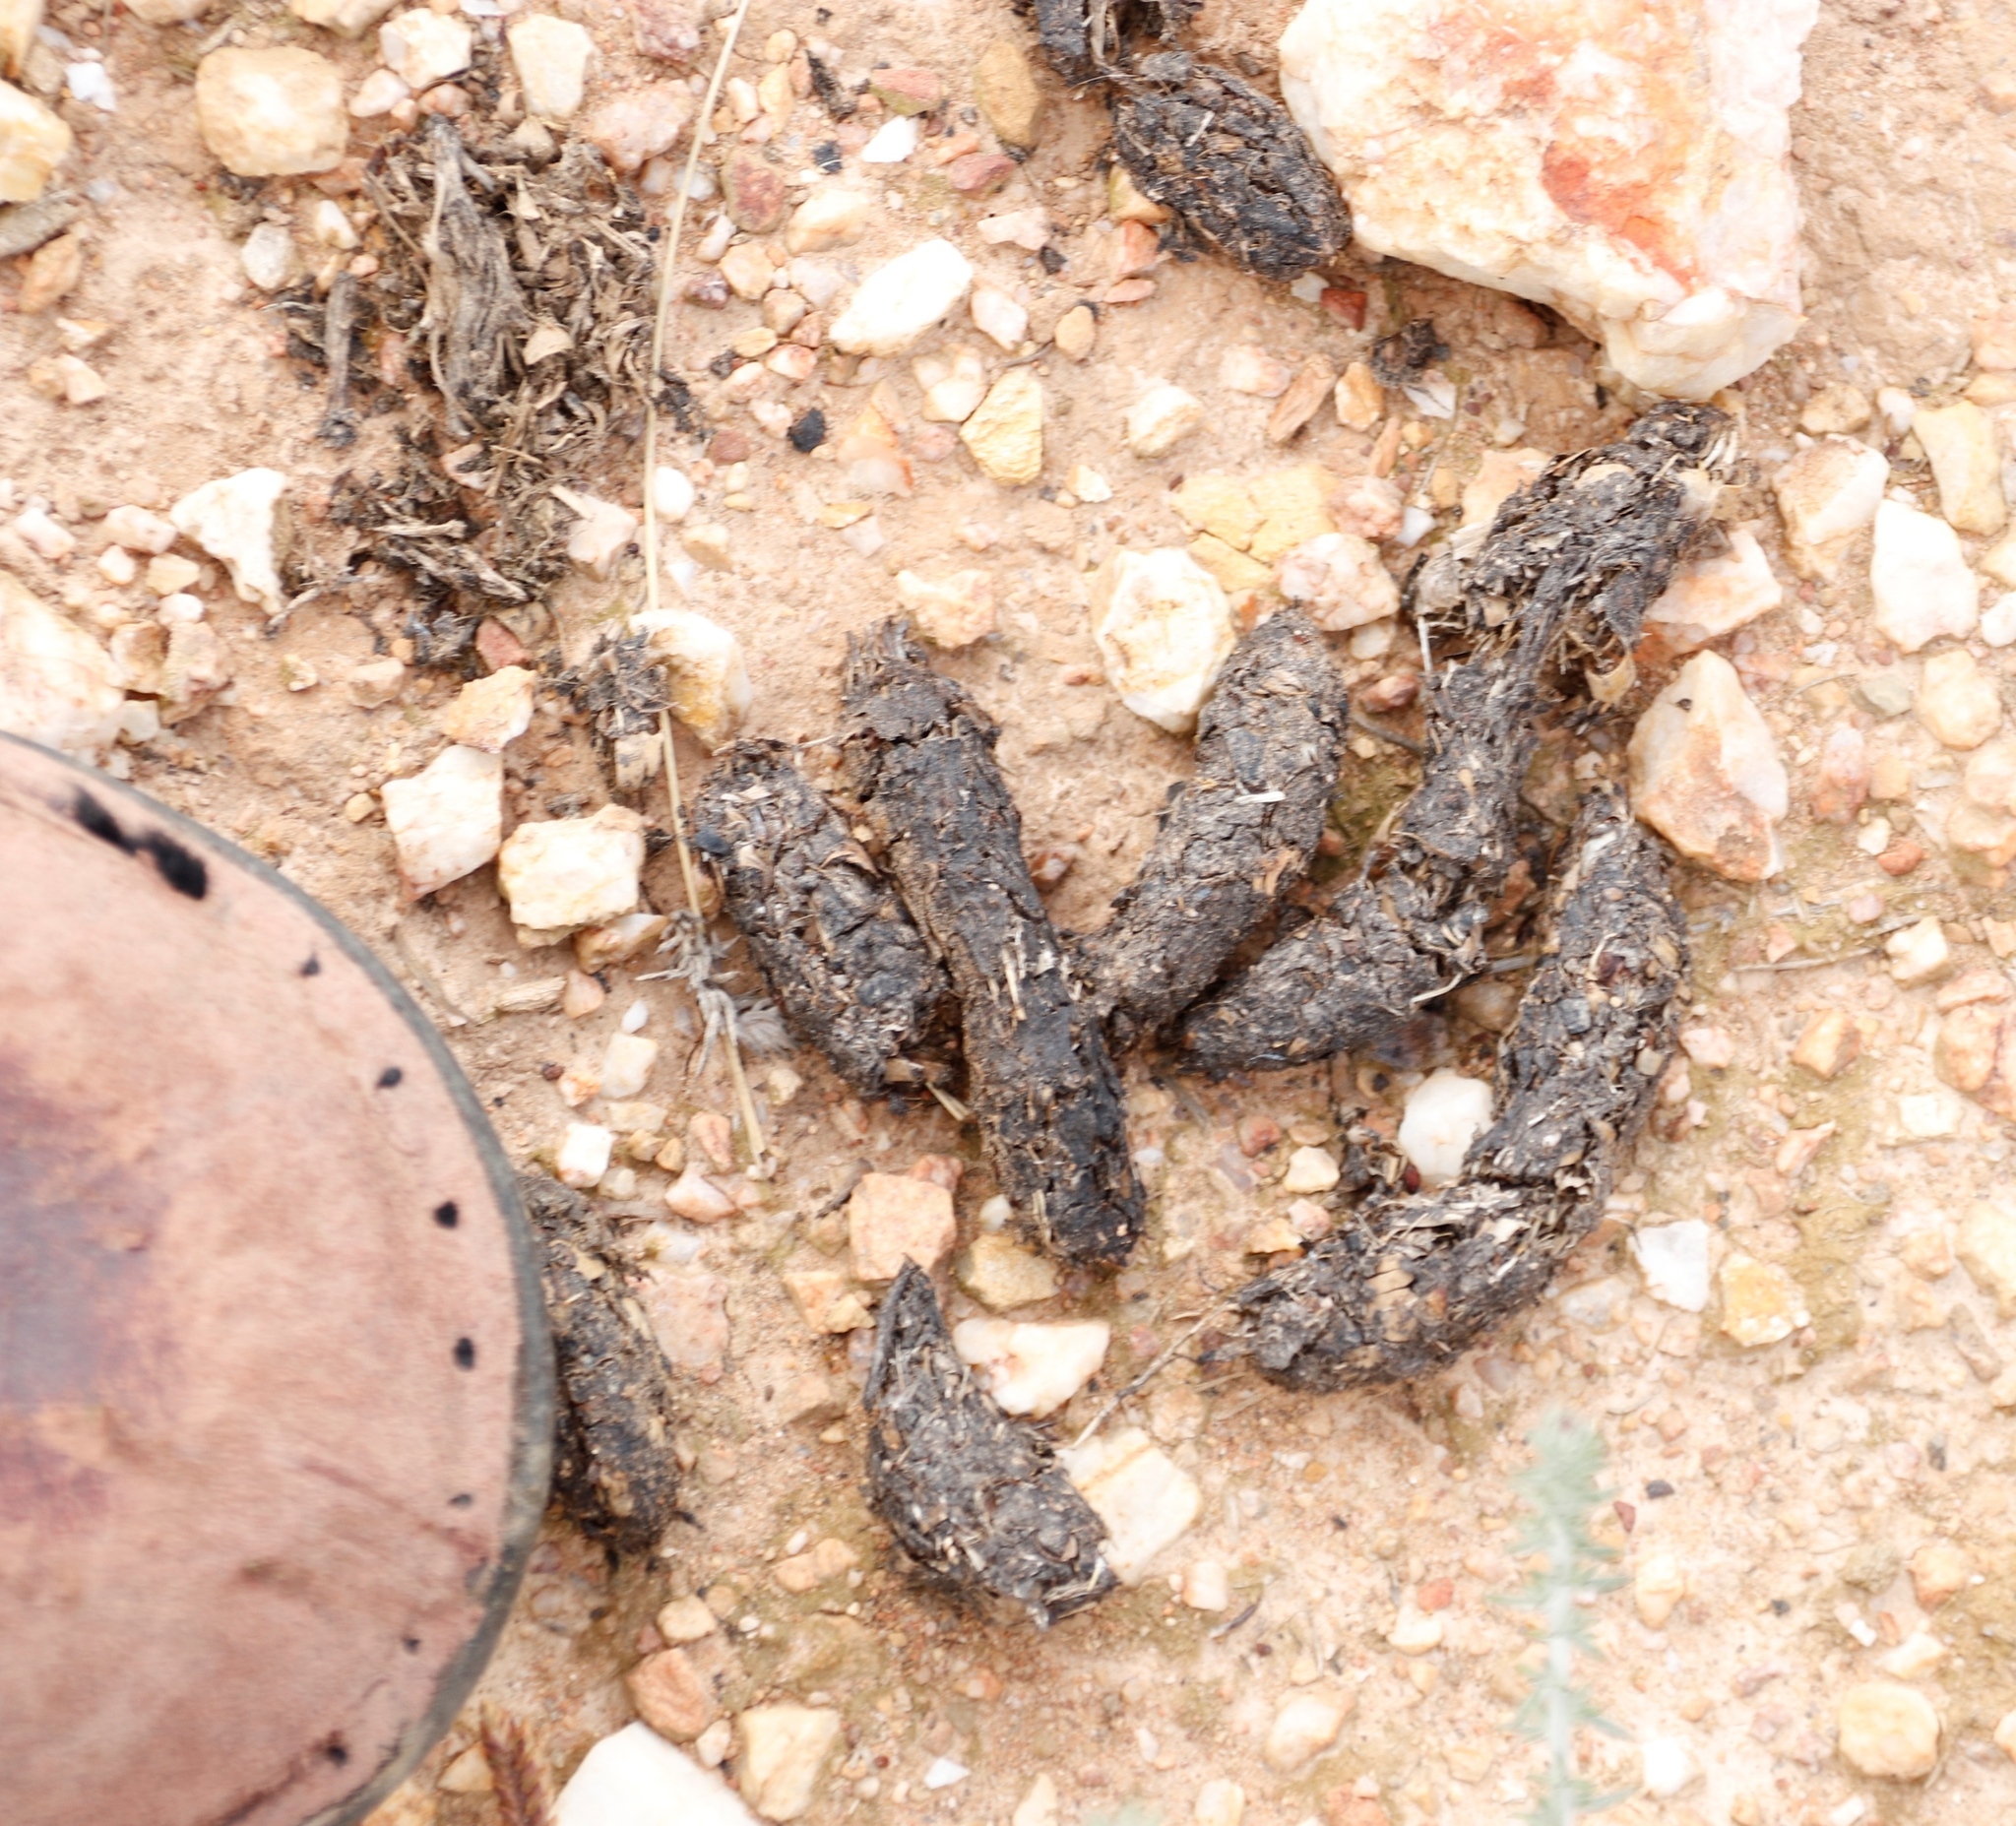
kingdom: Animalia
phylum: Chordata
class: Mammalia
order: Rodentia
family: Hystricidae
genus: Hystrix
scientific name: Hystrix africaeaustralis
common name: Cape porcupine
